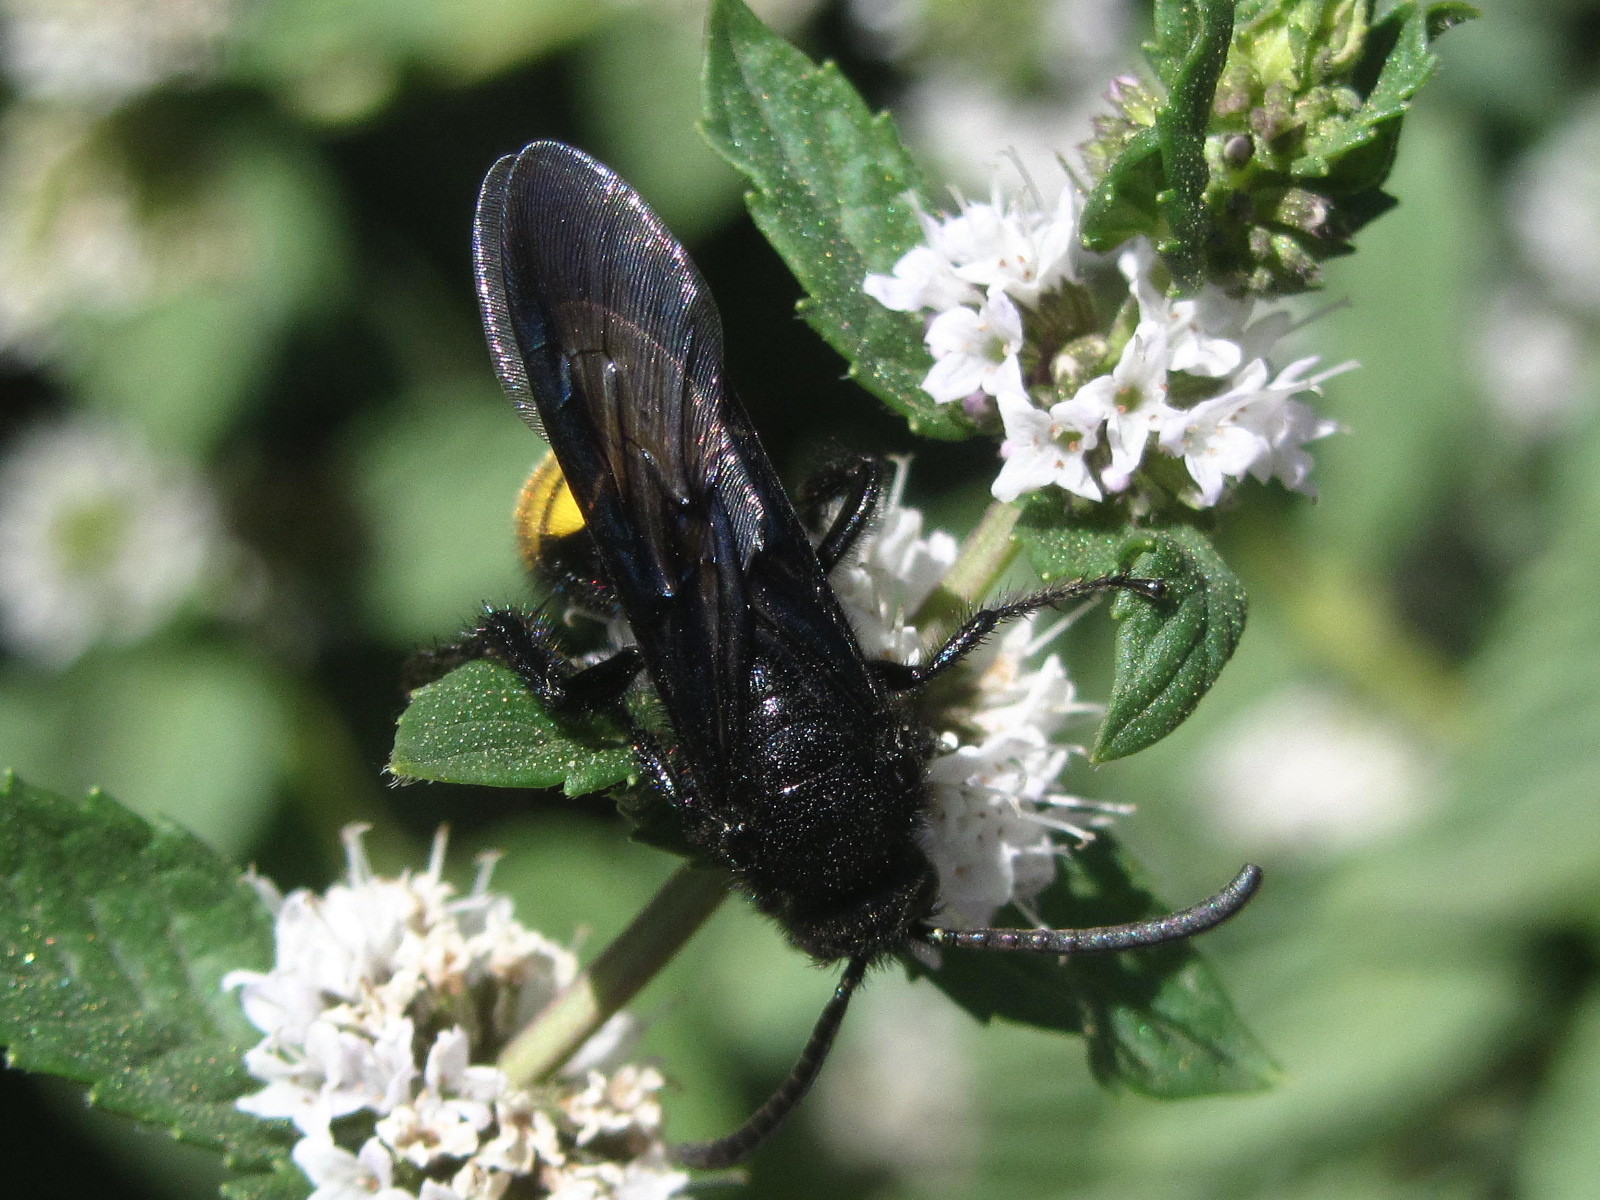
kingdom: Animalia
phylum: Arthropoda
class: Insecta
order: Hymenoptera
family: Scoliidae
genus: Scolia
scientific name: Scolia hirta
